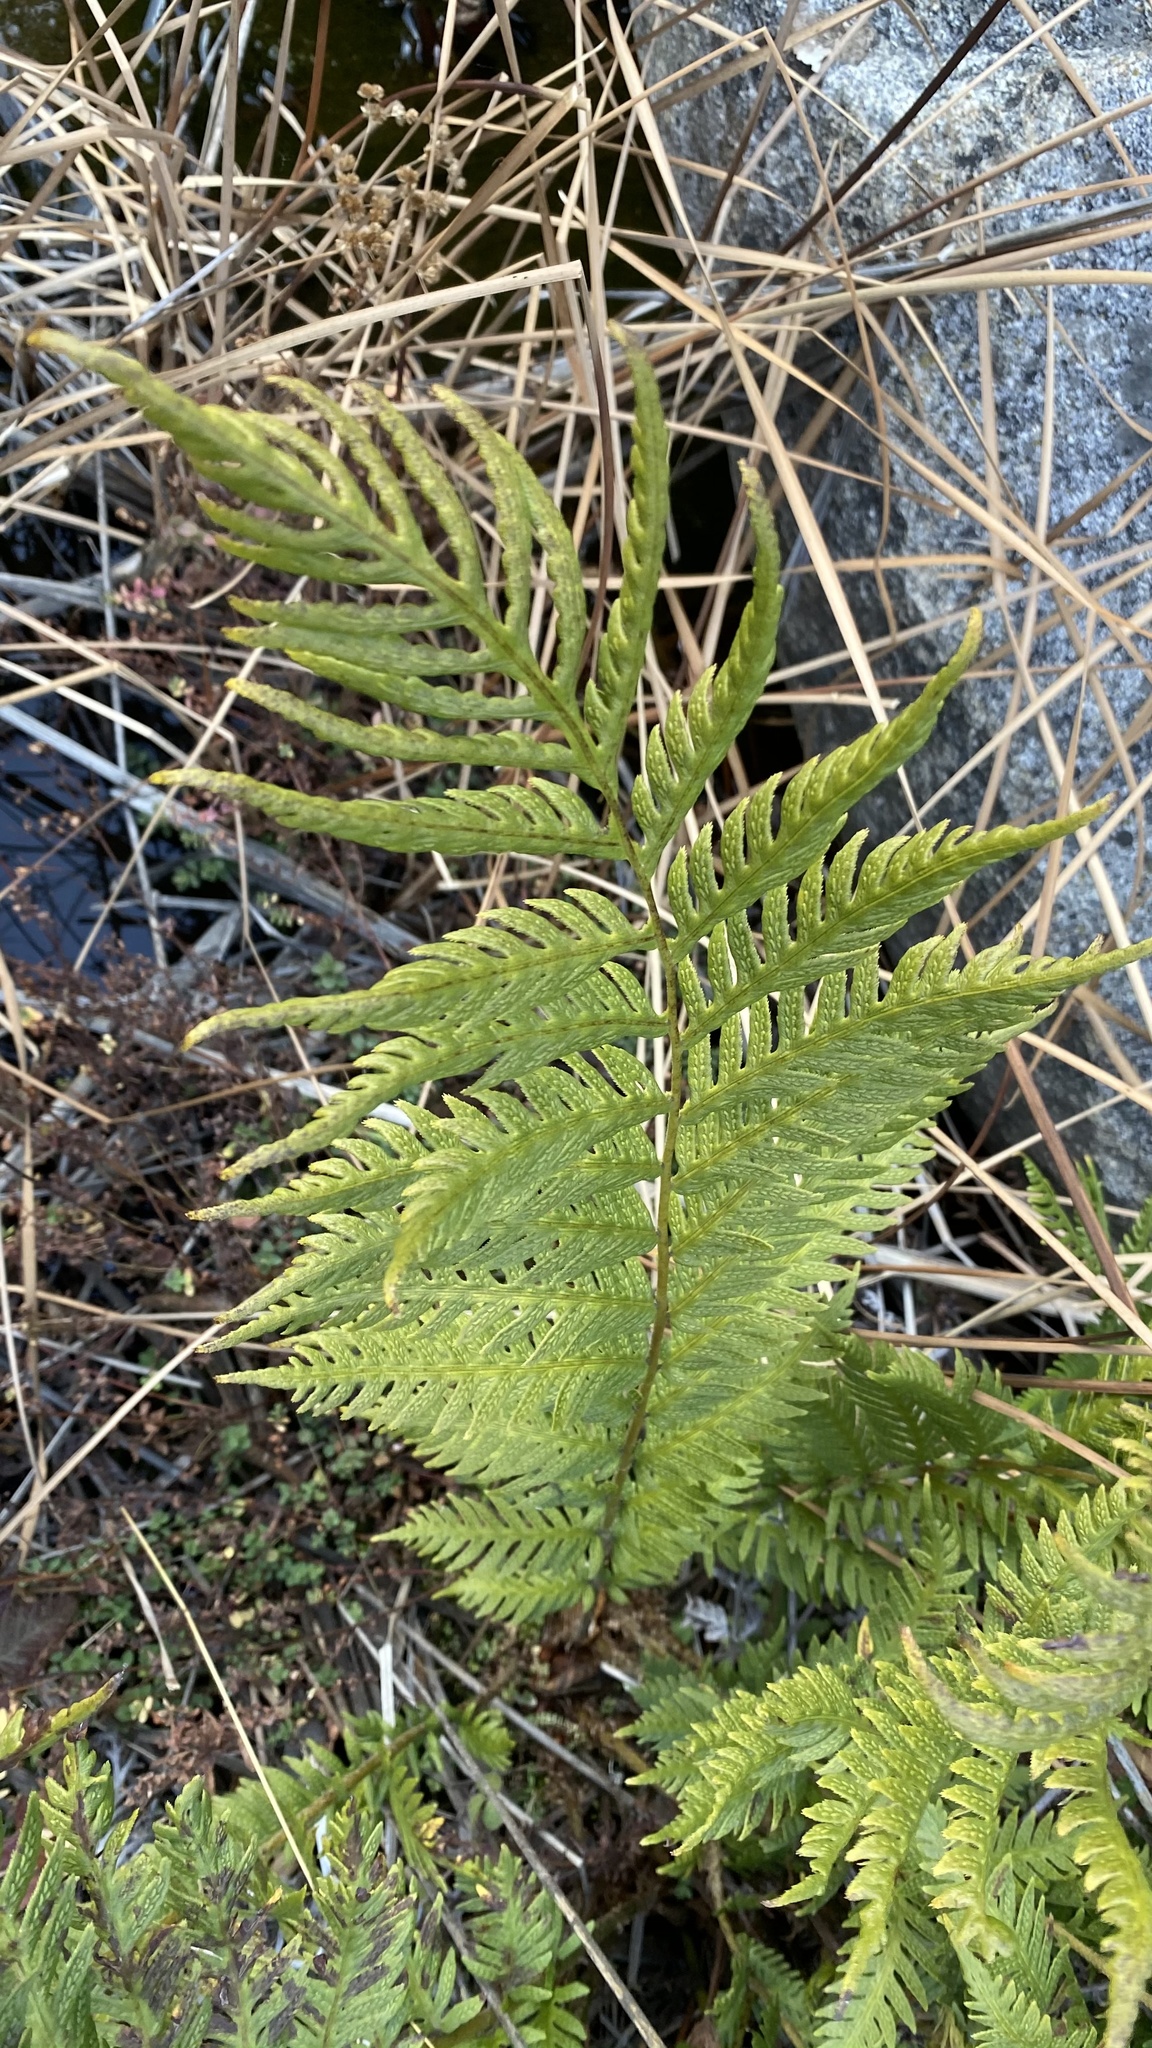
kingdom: Plantae
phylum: Tracheophyta
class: Polypodiopsida
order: Polypodiales
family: Blechnaceae
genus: Woodwardia
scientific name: Woodwardia fimbriata
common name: Giant chain fern
